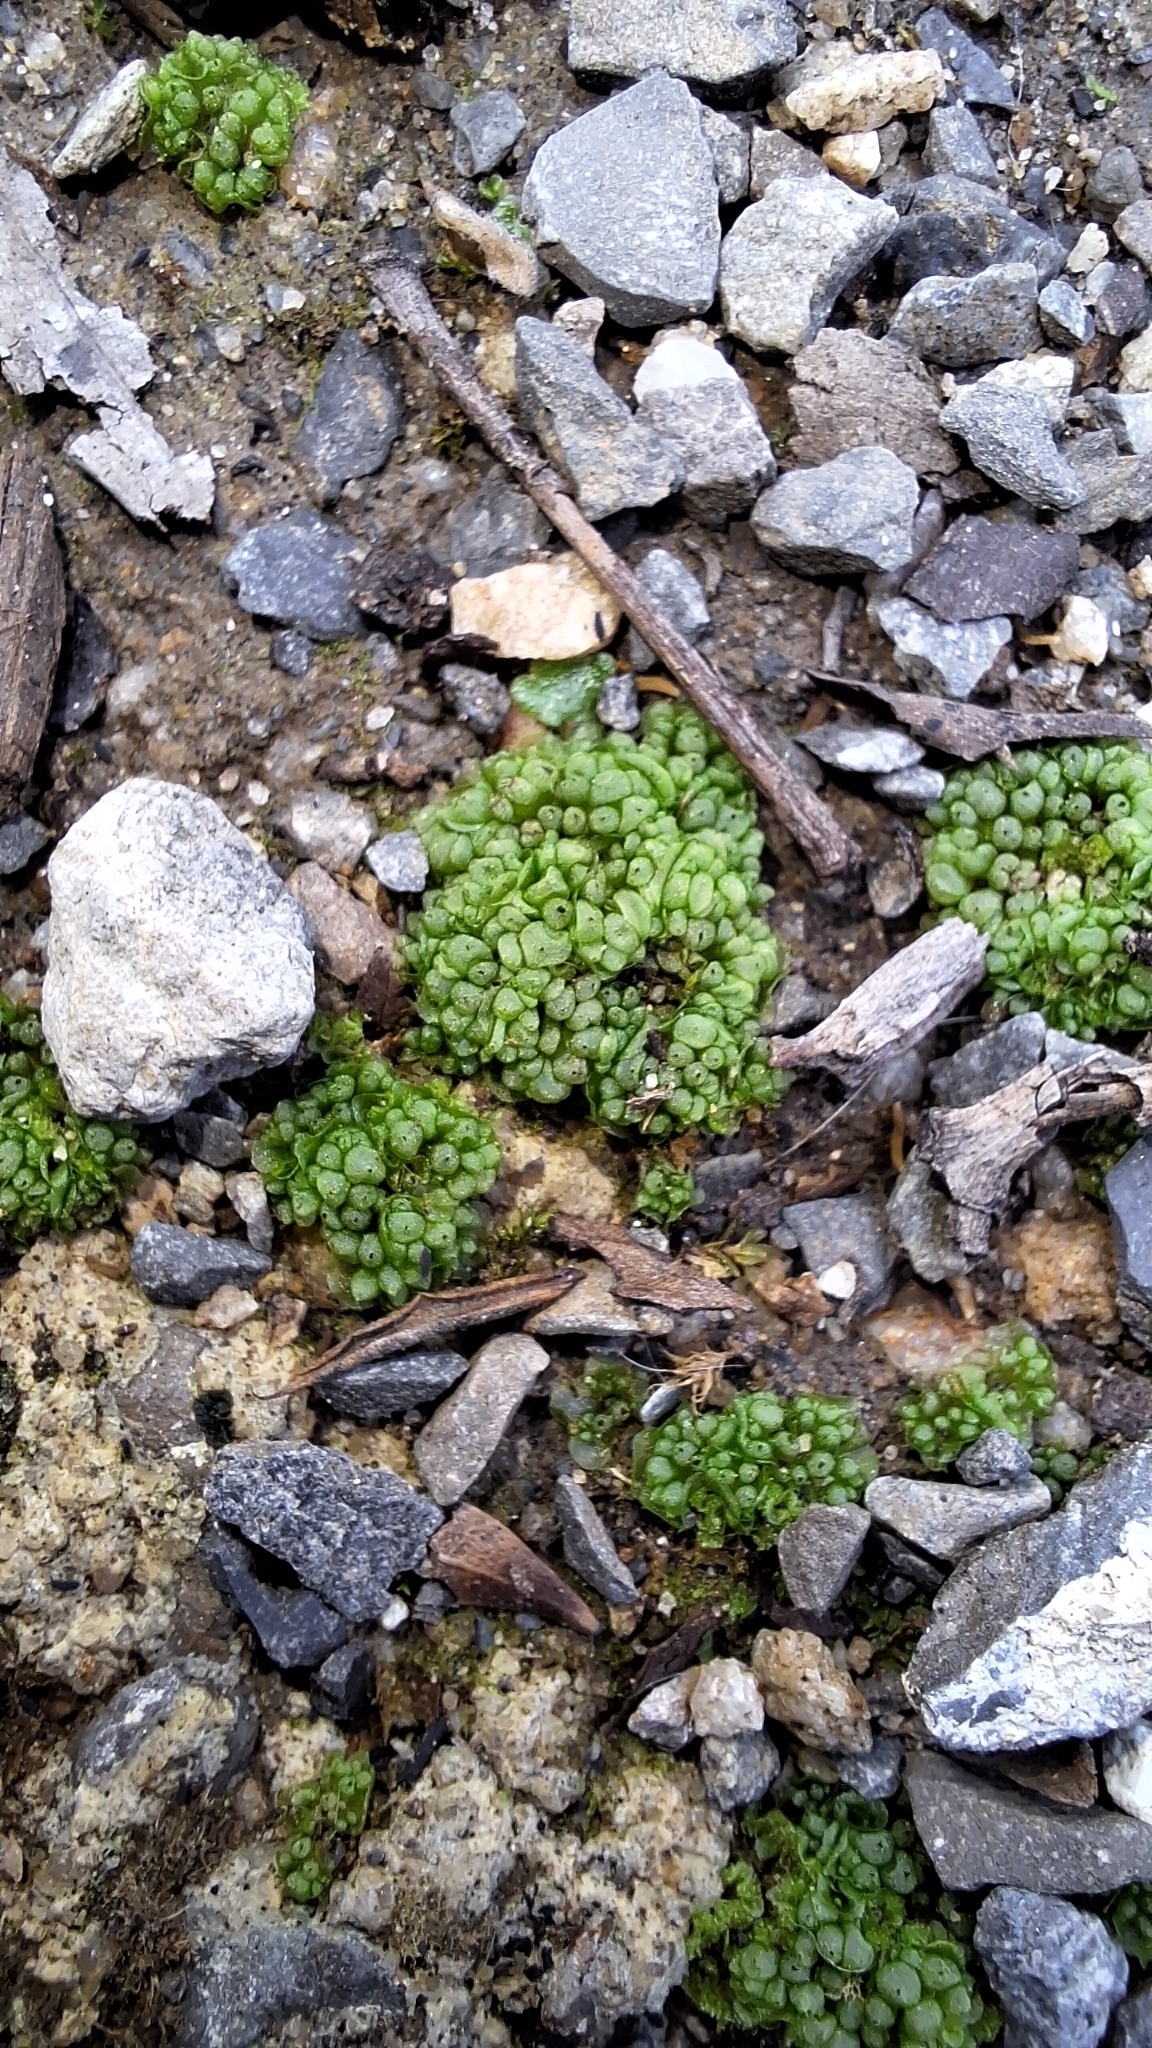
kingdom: Plantae
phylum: Marchantiophyta
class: Marchantiopsida
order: Sphaerocarpales
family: Sphaerocarpaceae
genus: Sphaerocarpos
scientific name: Sphaerocarpos texanus
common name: Texas balloonwort
